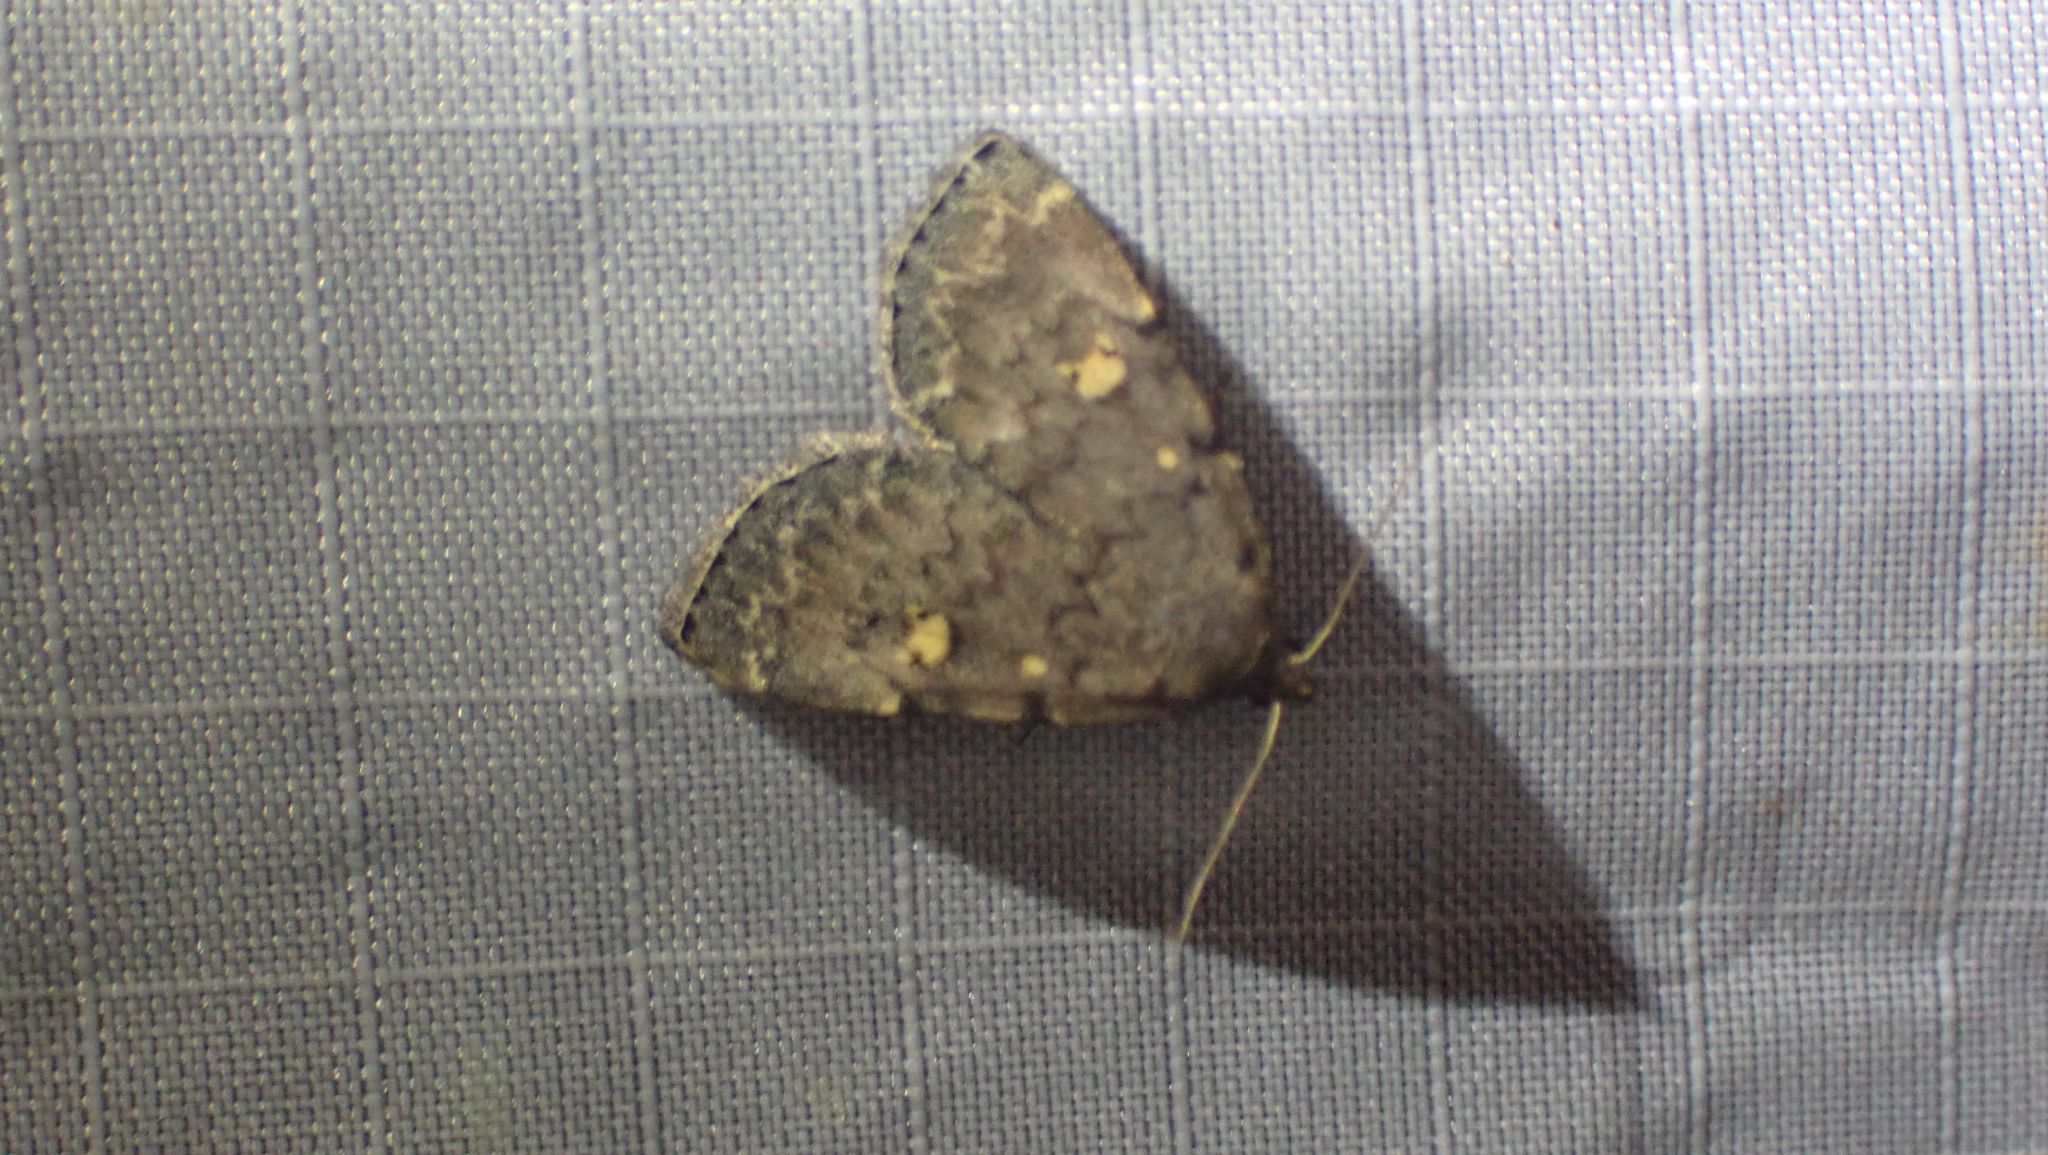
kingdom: Animalia
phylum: Arthropoda
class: Insecta
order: Lepidoptera
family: Erebidae
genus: Idia
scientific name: Idia aemula
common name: Common idia moth
